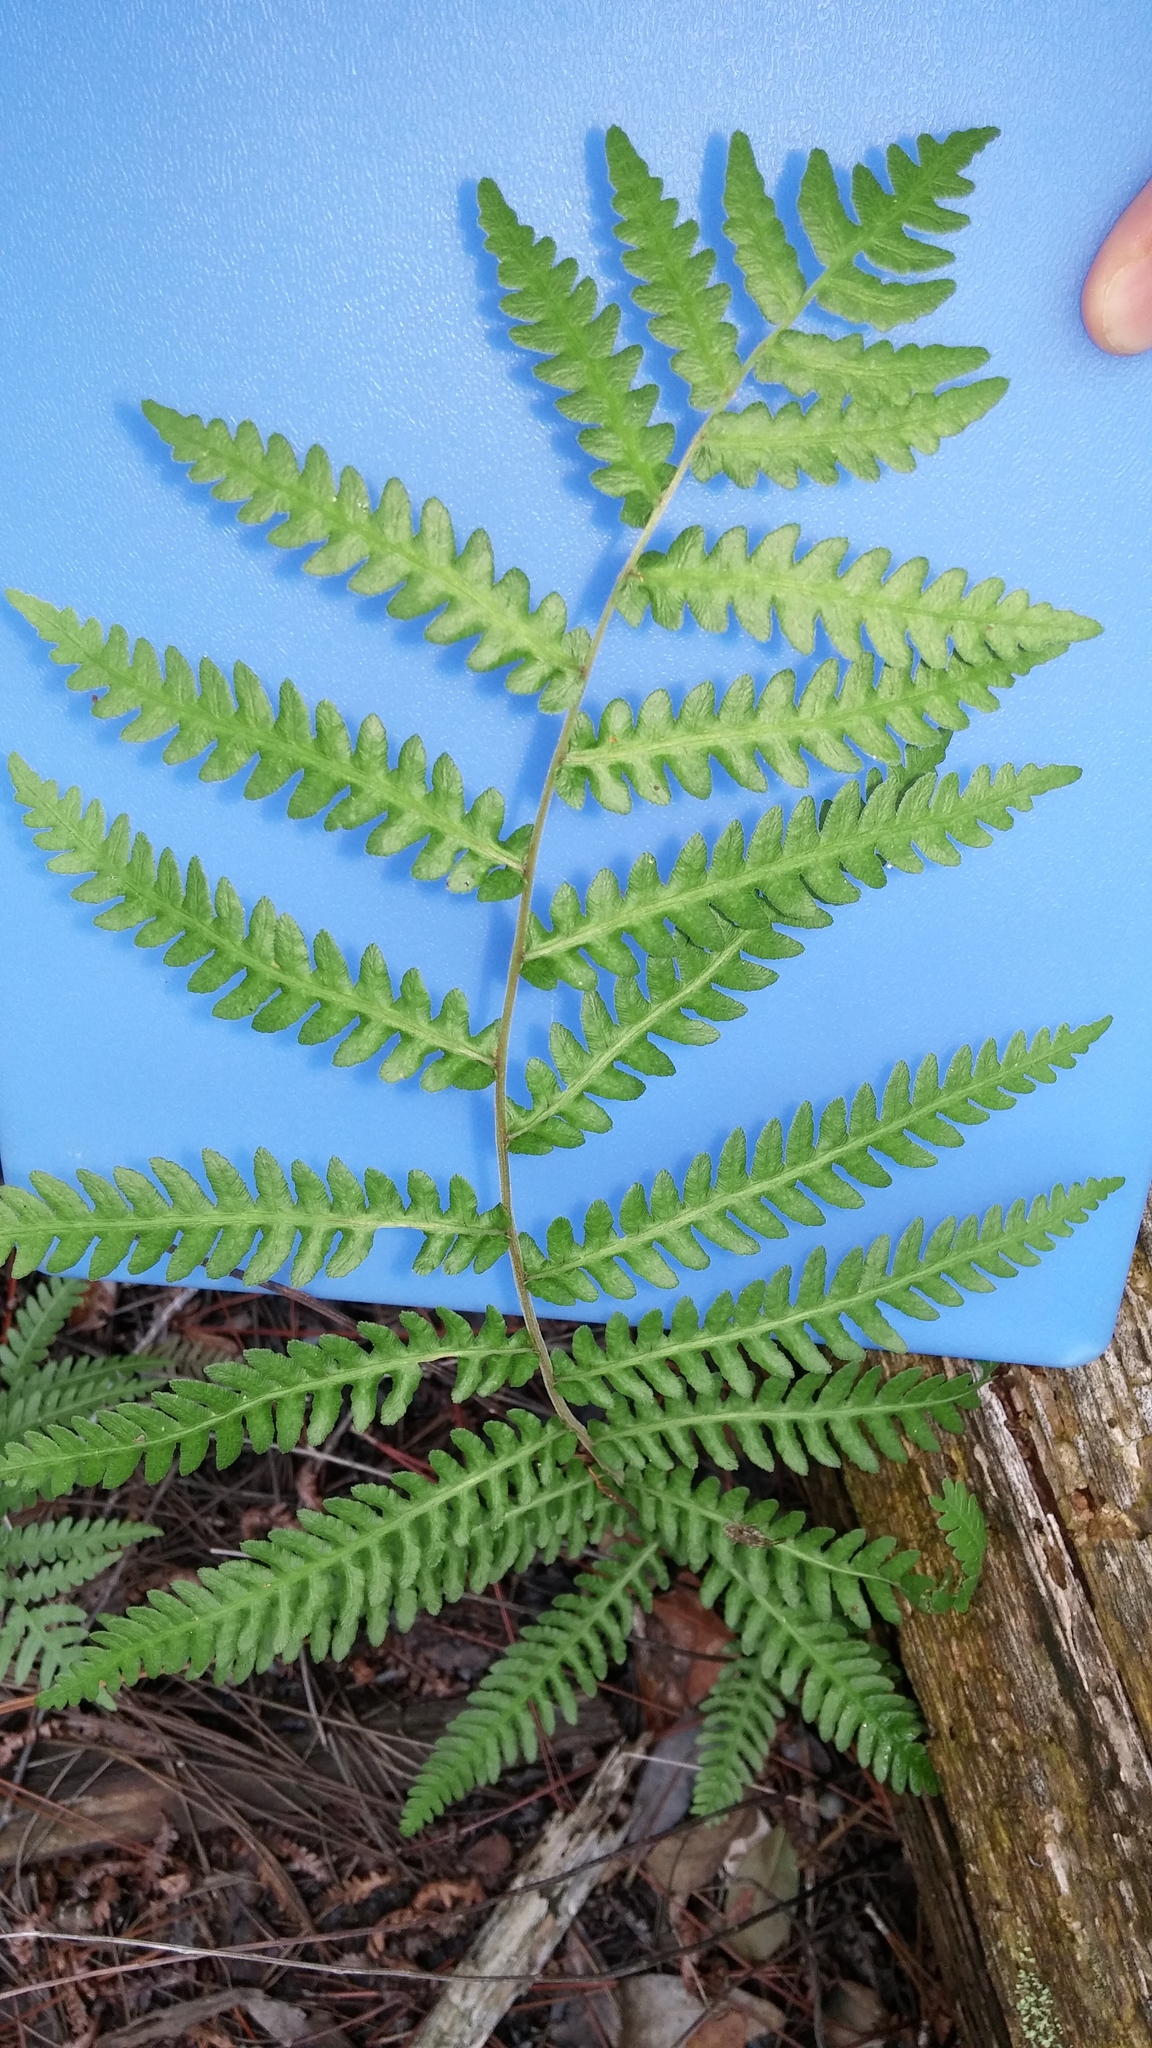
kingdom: Plantae
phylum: Tracheophyta
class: Polypodiopsida
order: Polypodiales
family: Blechnaceae
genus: Anchistea
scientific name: Anchistea virginica
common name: Virginia chain fern
